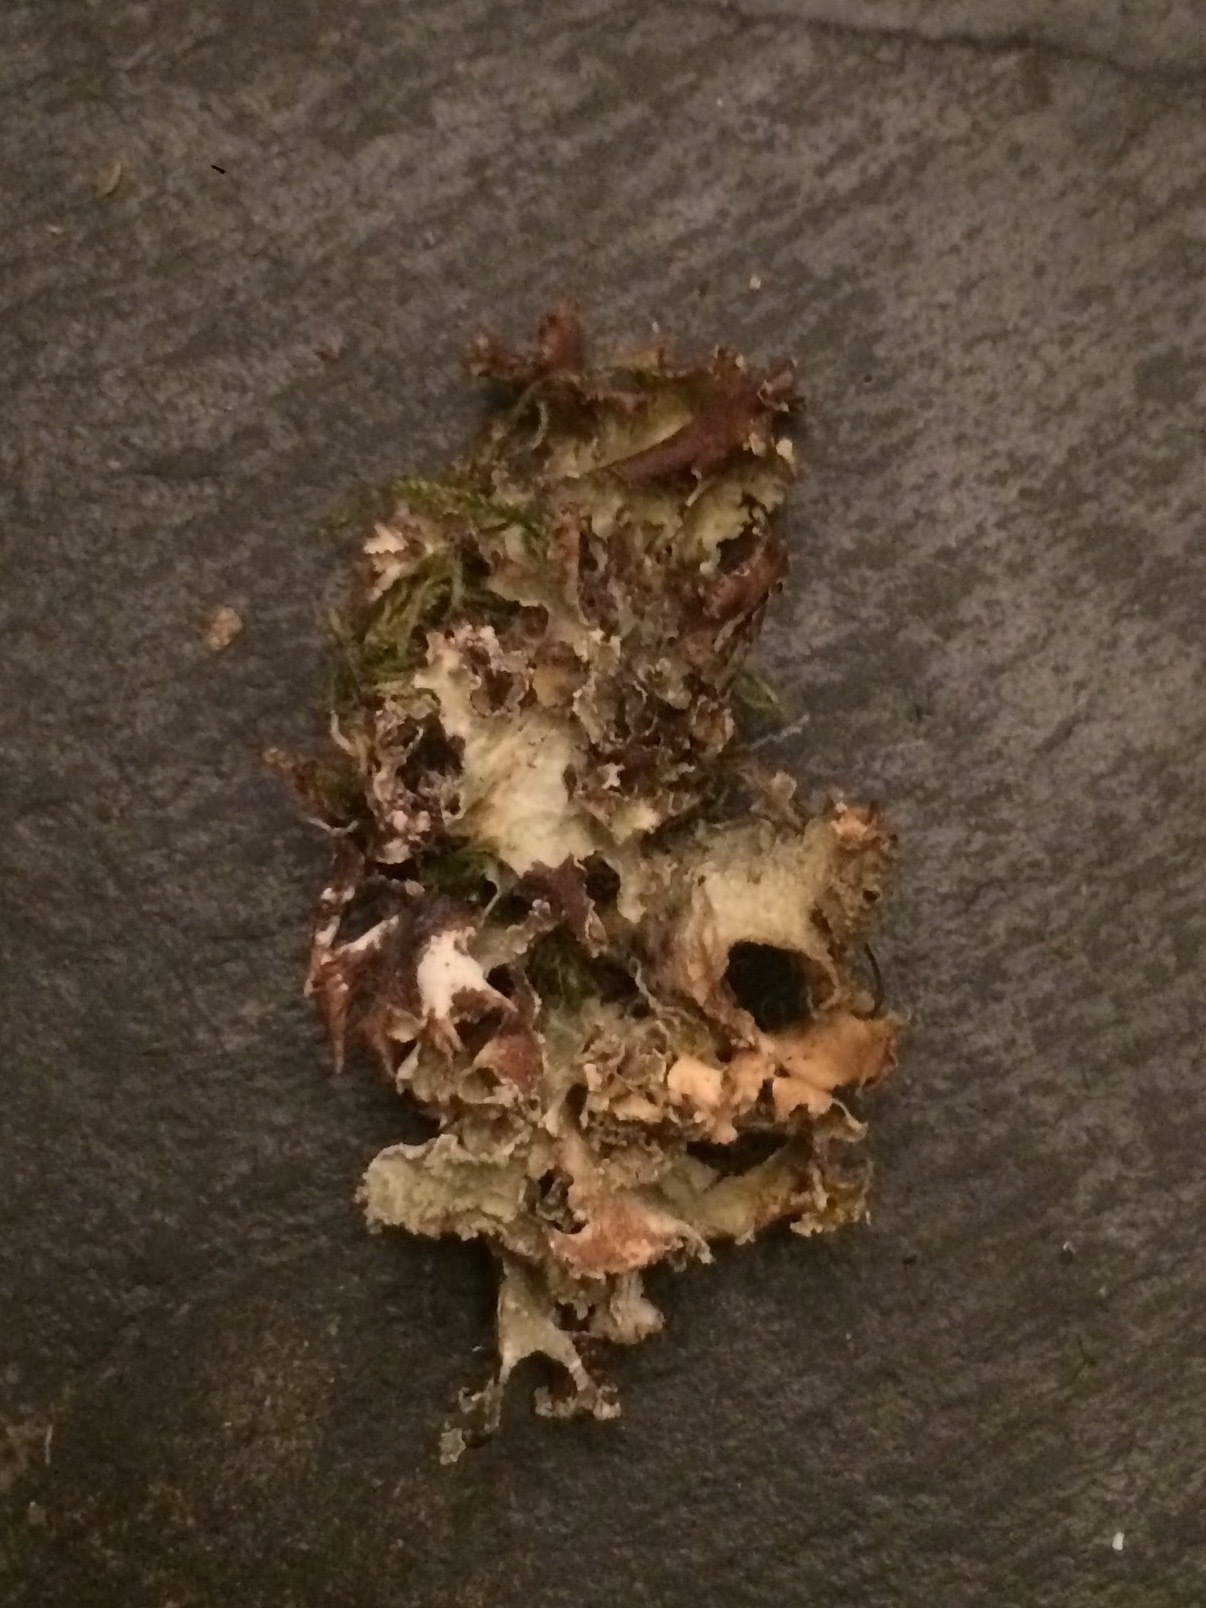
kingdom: Fungi
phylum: Ascomycota
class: Lecanoromycetes
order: Lecanorales
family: Parmeliaceae
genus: Platismatia
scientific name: Platismatia glauca
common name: Varied rag lichen
